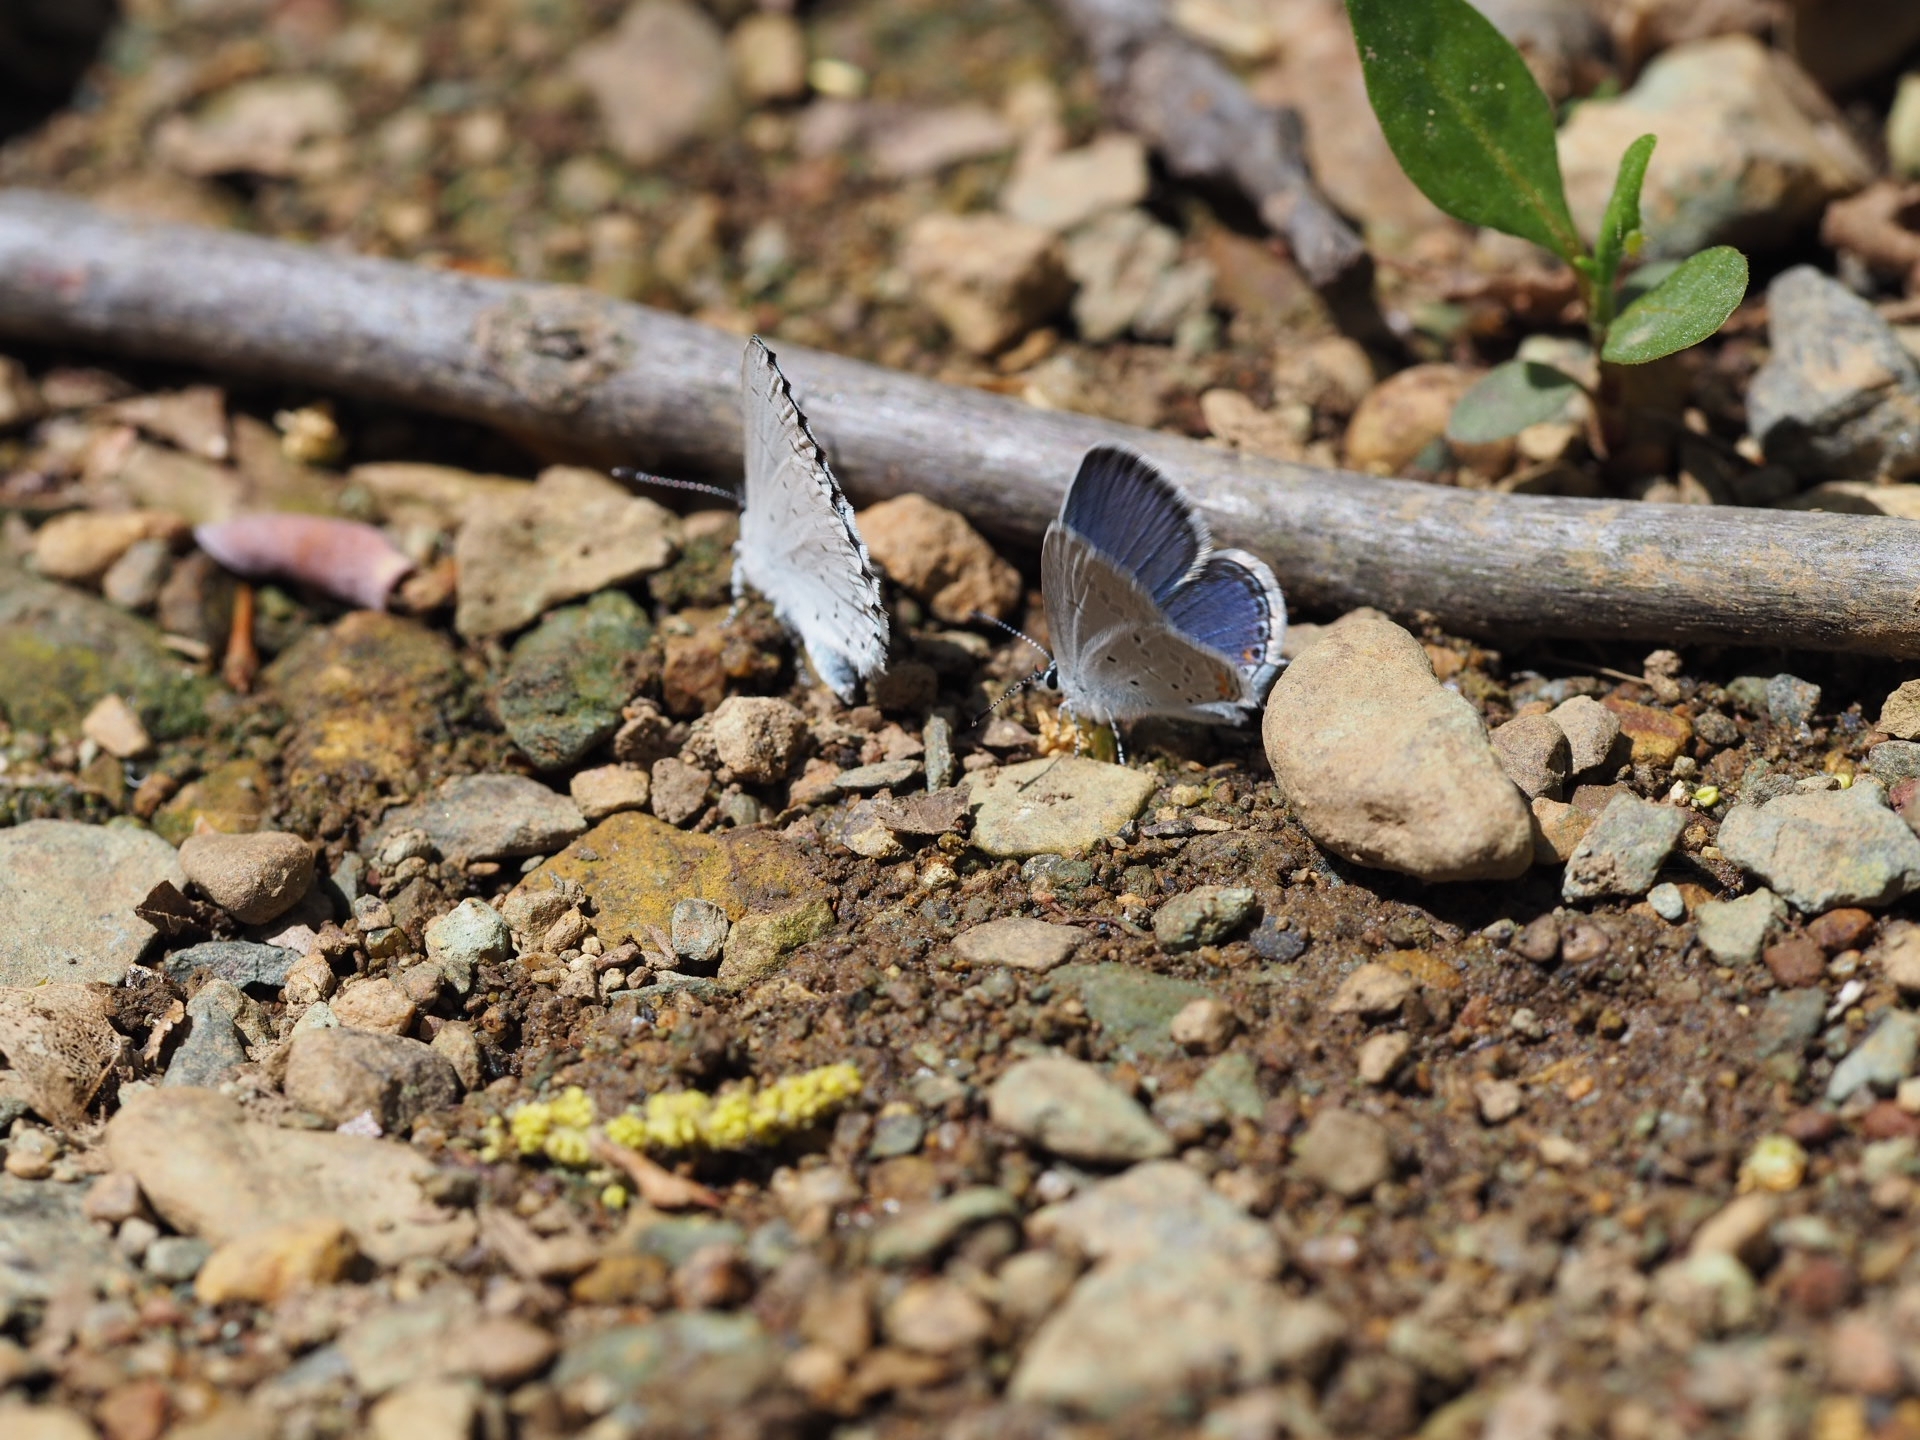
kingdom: Animalia
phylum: Arthropoda
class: Insecta
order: Lepidoptera
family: Lycaenidae
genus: Elkalyce
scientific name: Elkalyce comyntas
